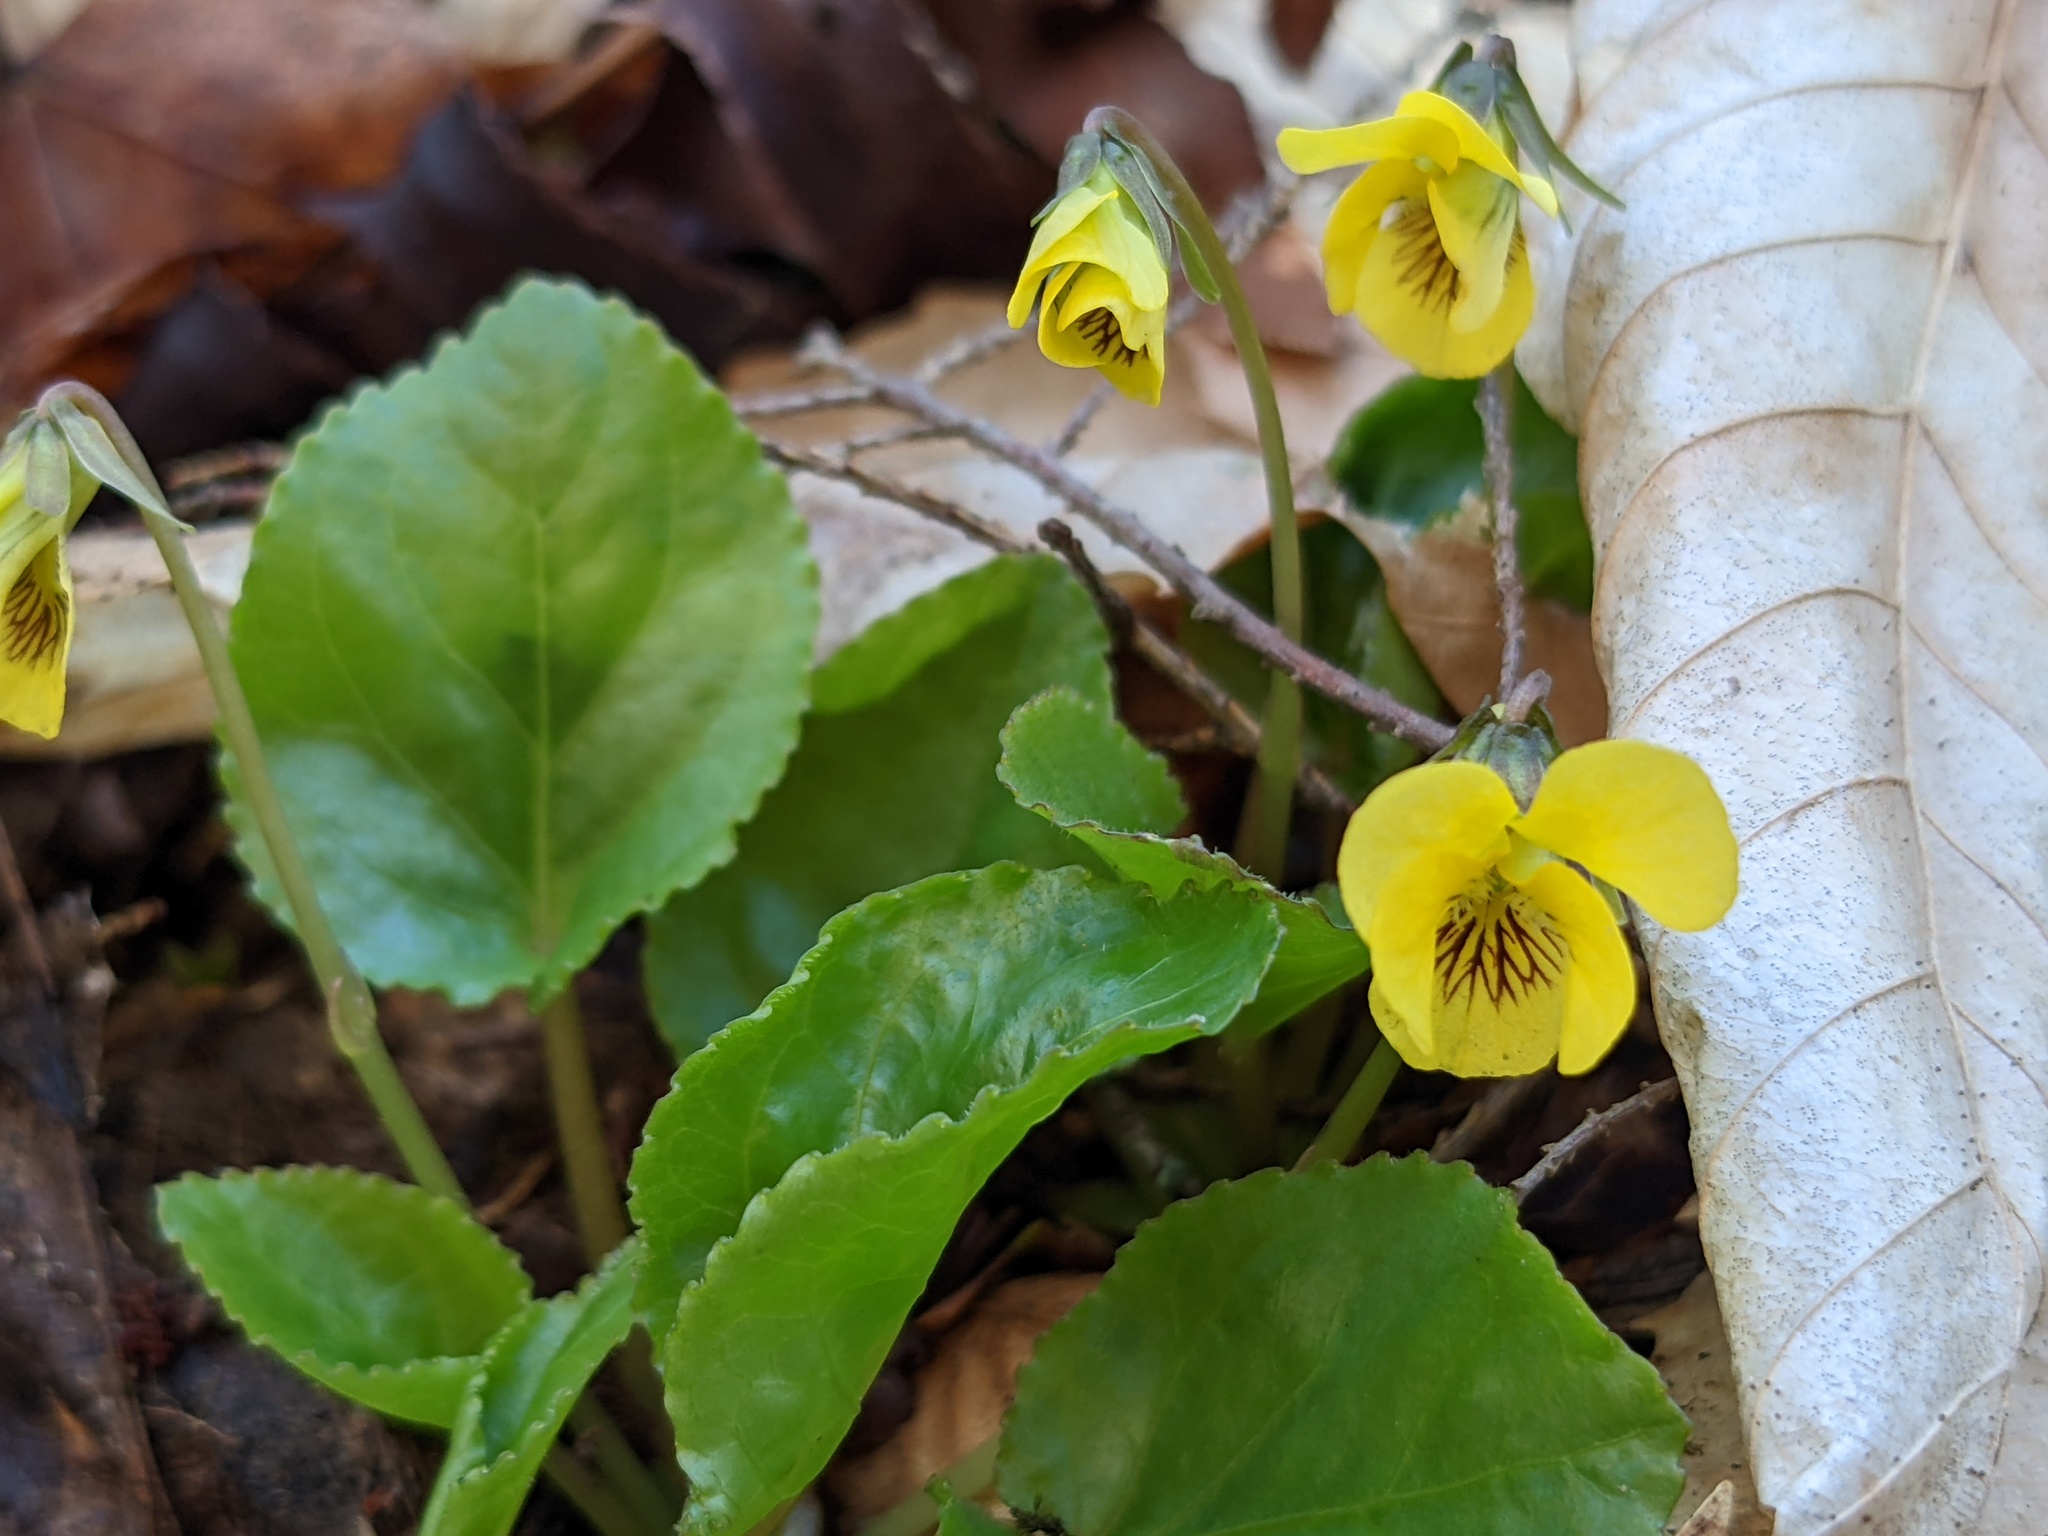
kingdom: Plantae
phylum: Tracheophyta
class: Magnoliopsida
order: Malpighiales
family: Violaceae
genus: Viola
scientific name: Viola rotundifolia
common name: Early yellow violet
